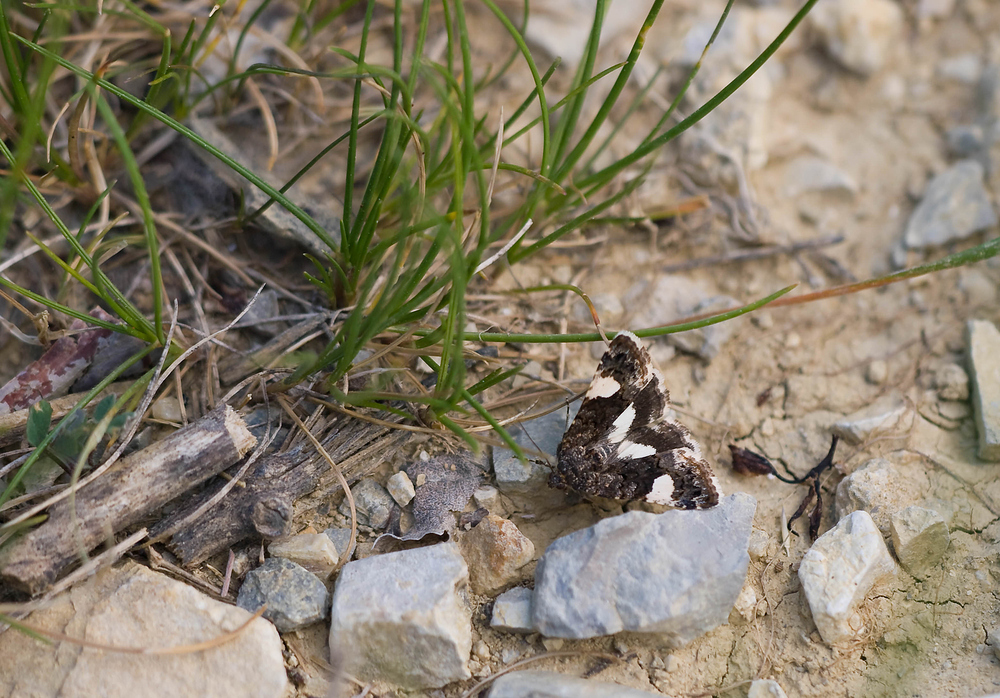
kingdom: Animalia
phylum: Arthropoda
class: Insecta
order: Lepidoptera
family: Erebidae
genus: Tyta
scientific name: Tyta luctuosa
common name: Four-spotted
